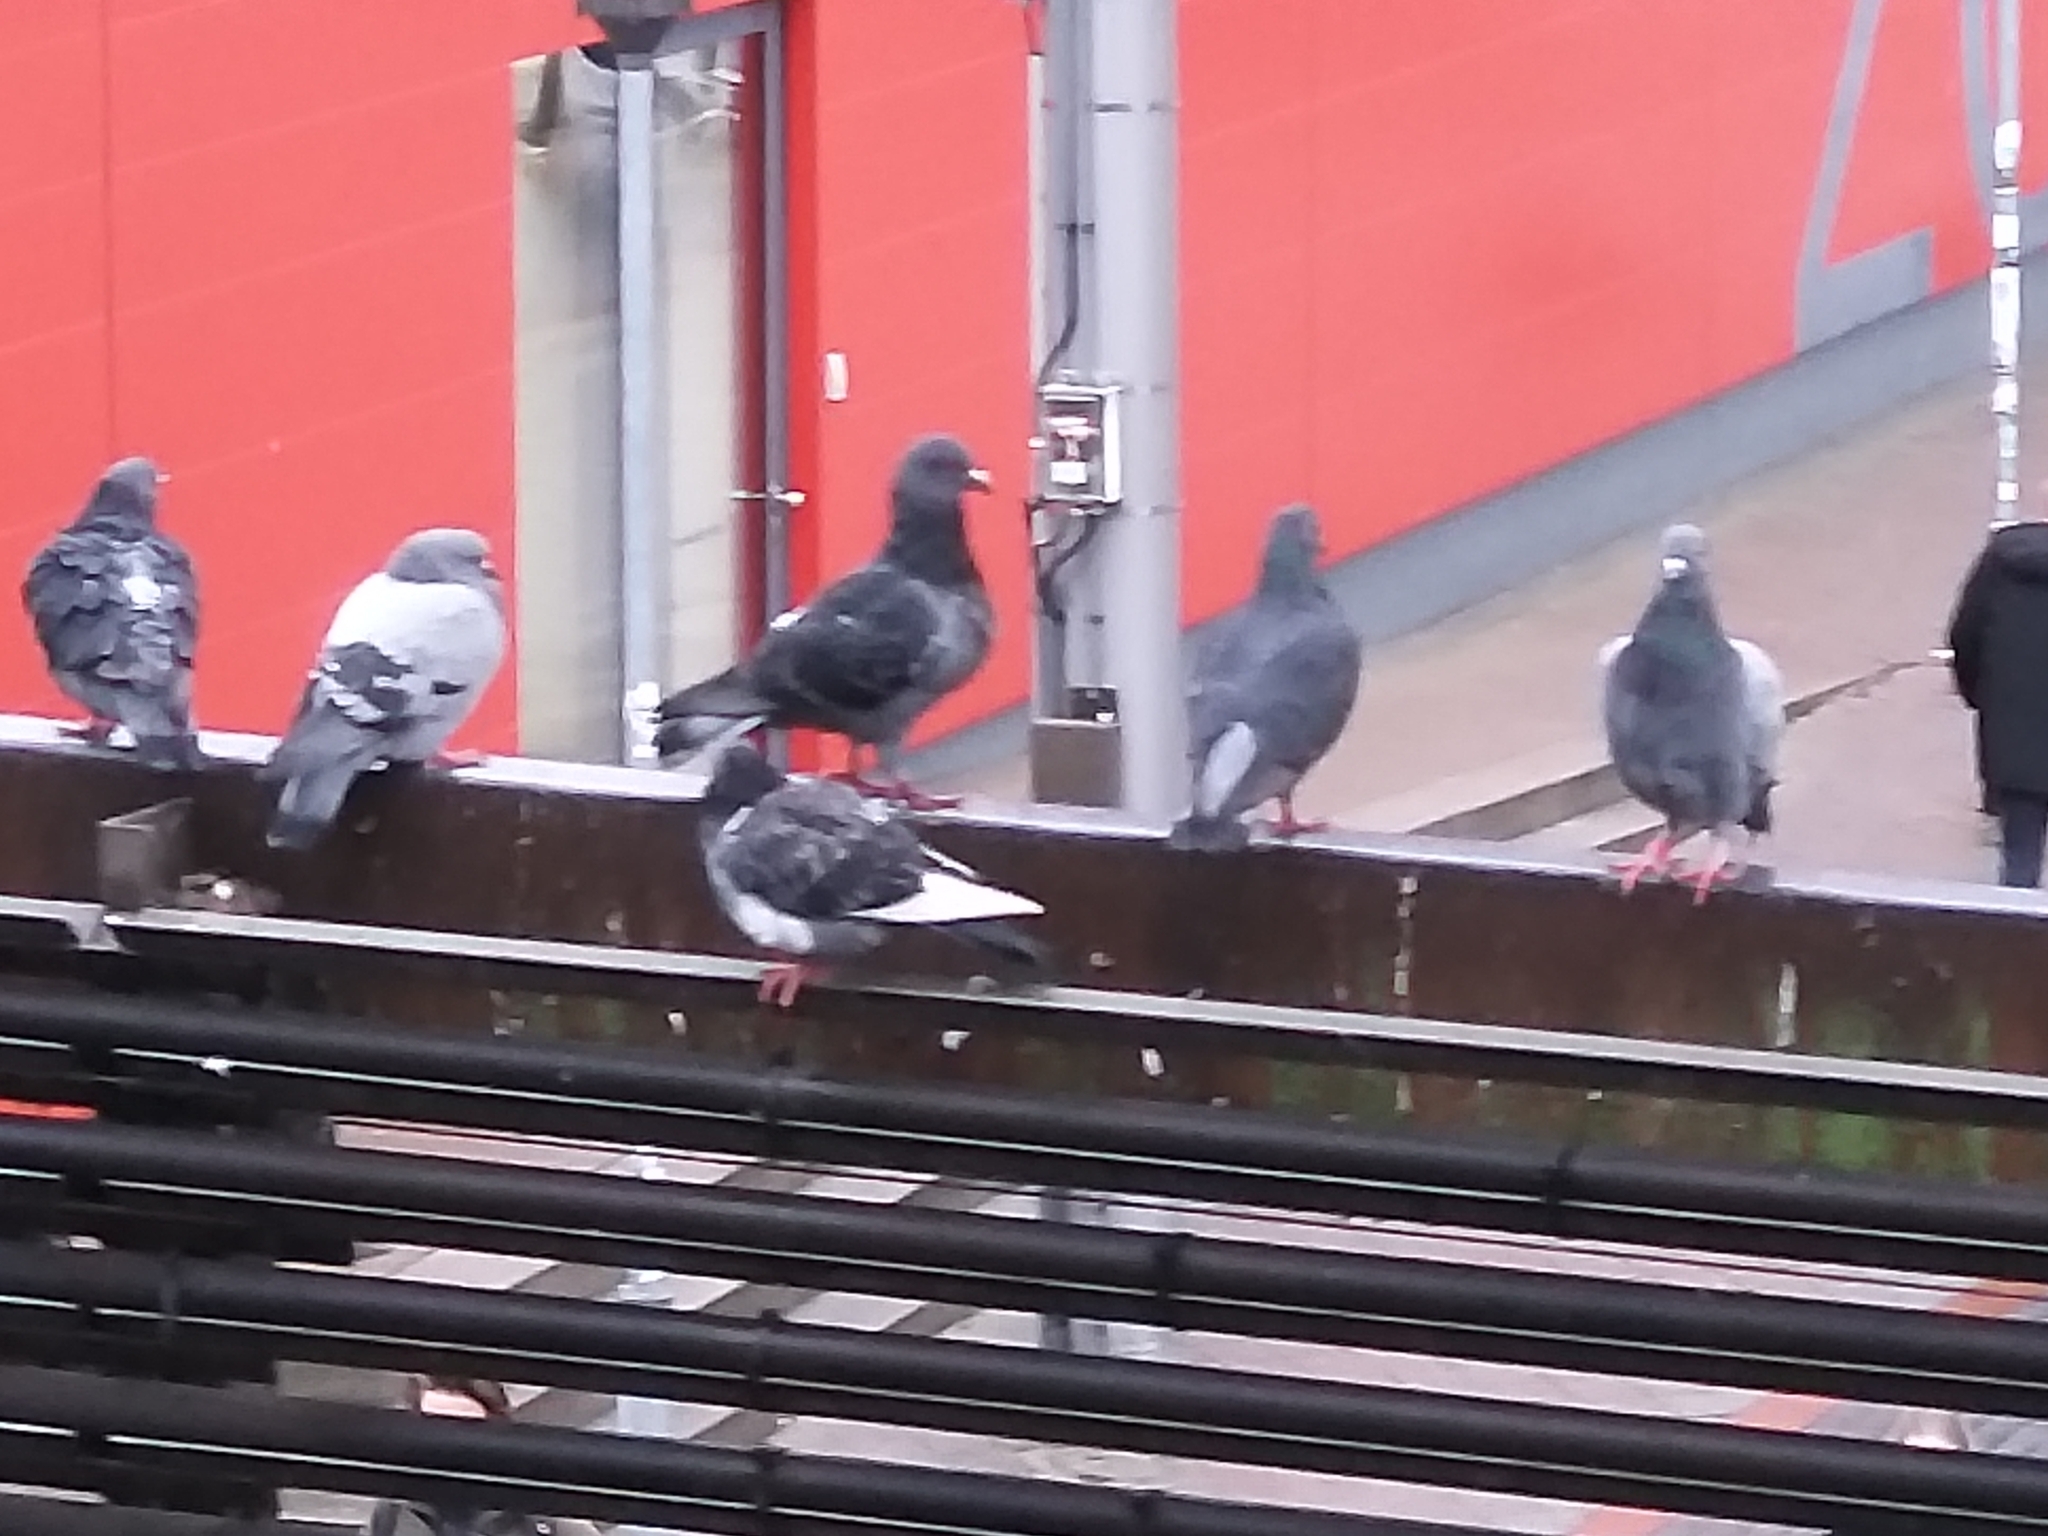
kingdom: Animalia
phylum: Chordata
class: Aves
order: Columbiformes
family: Columbidae
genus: Columba
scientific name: Columba livia
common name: Rock pigeon
